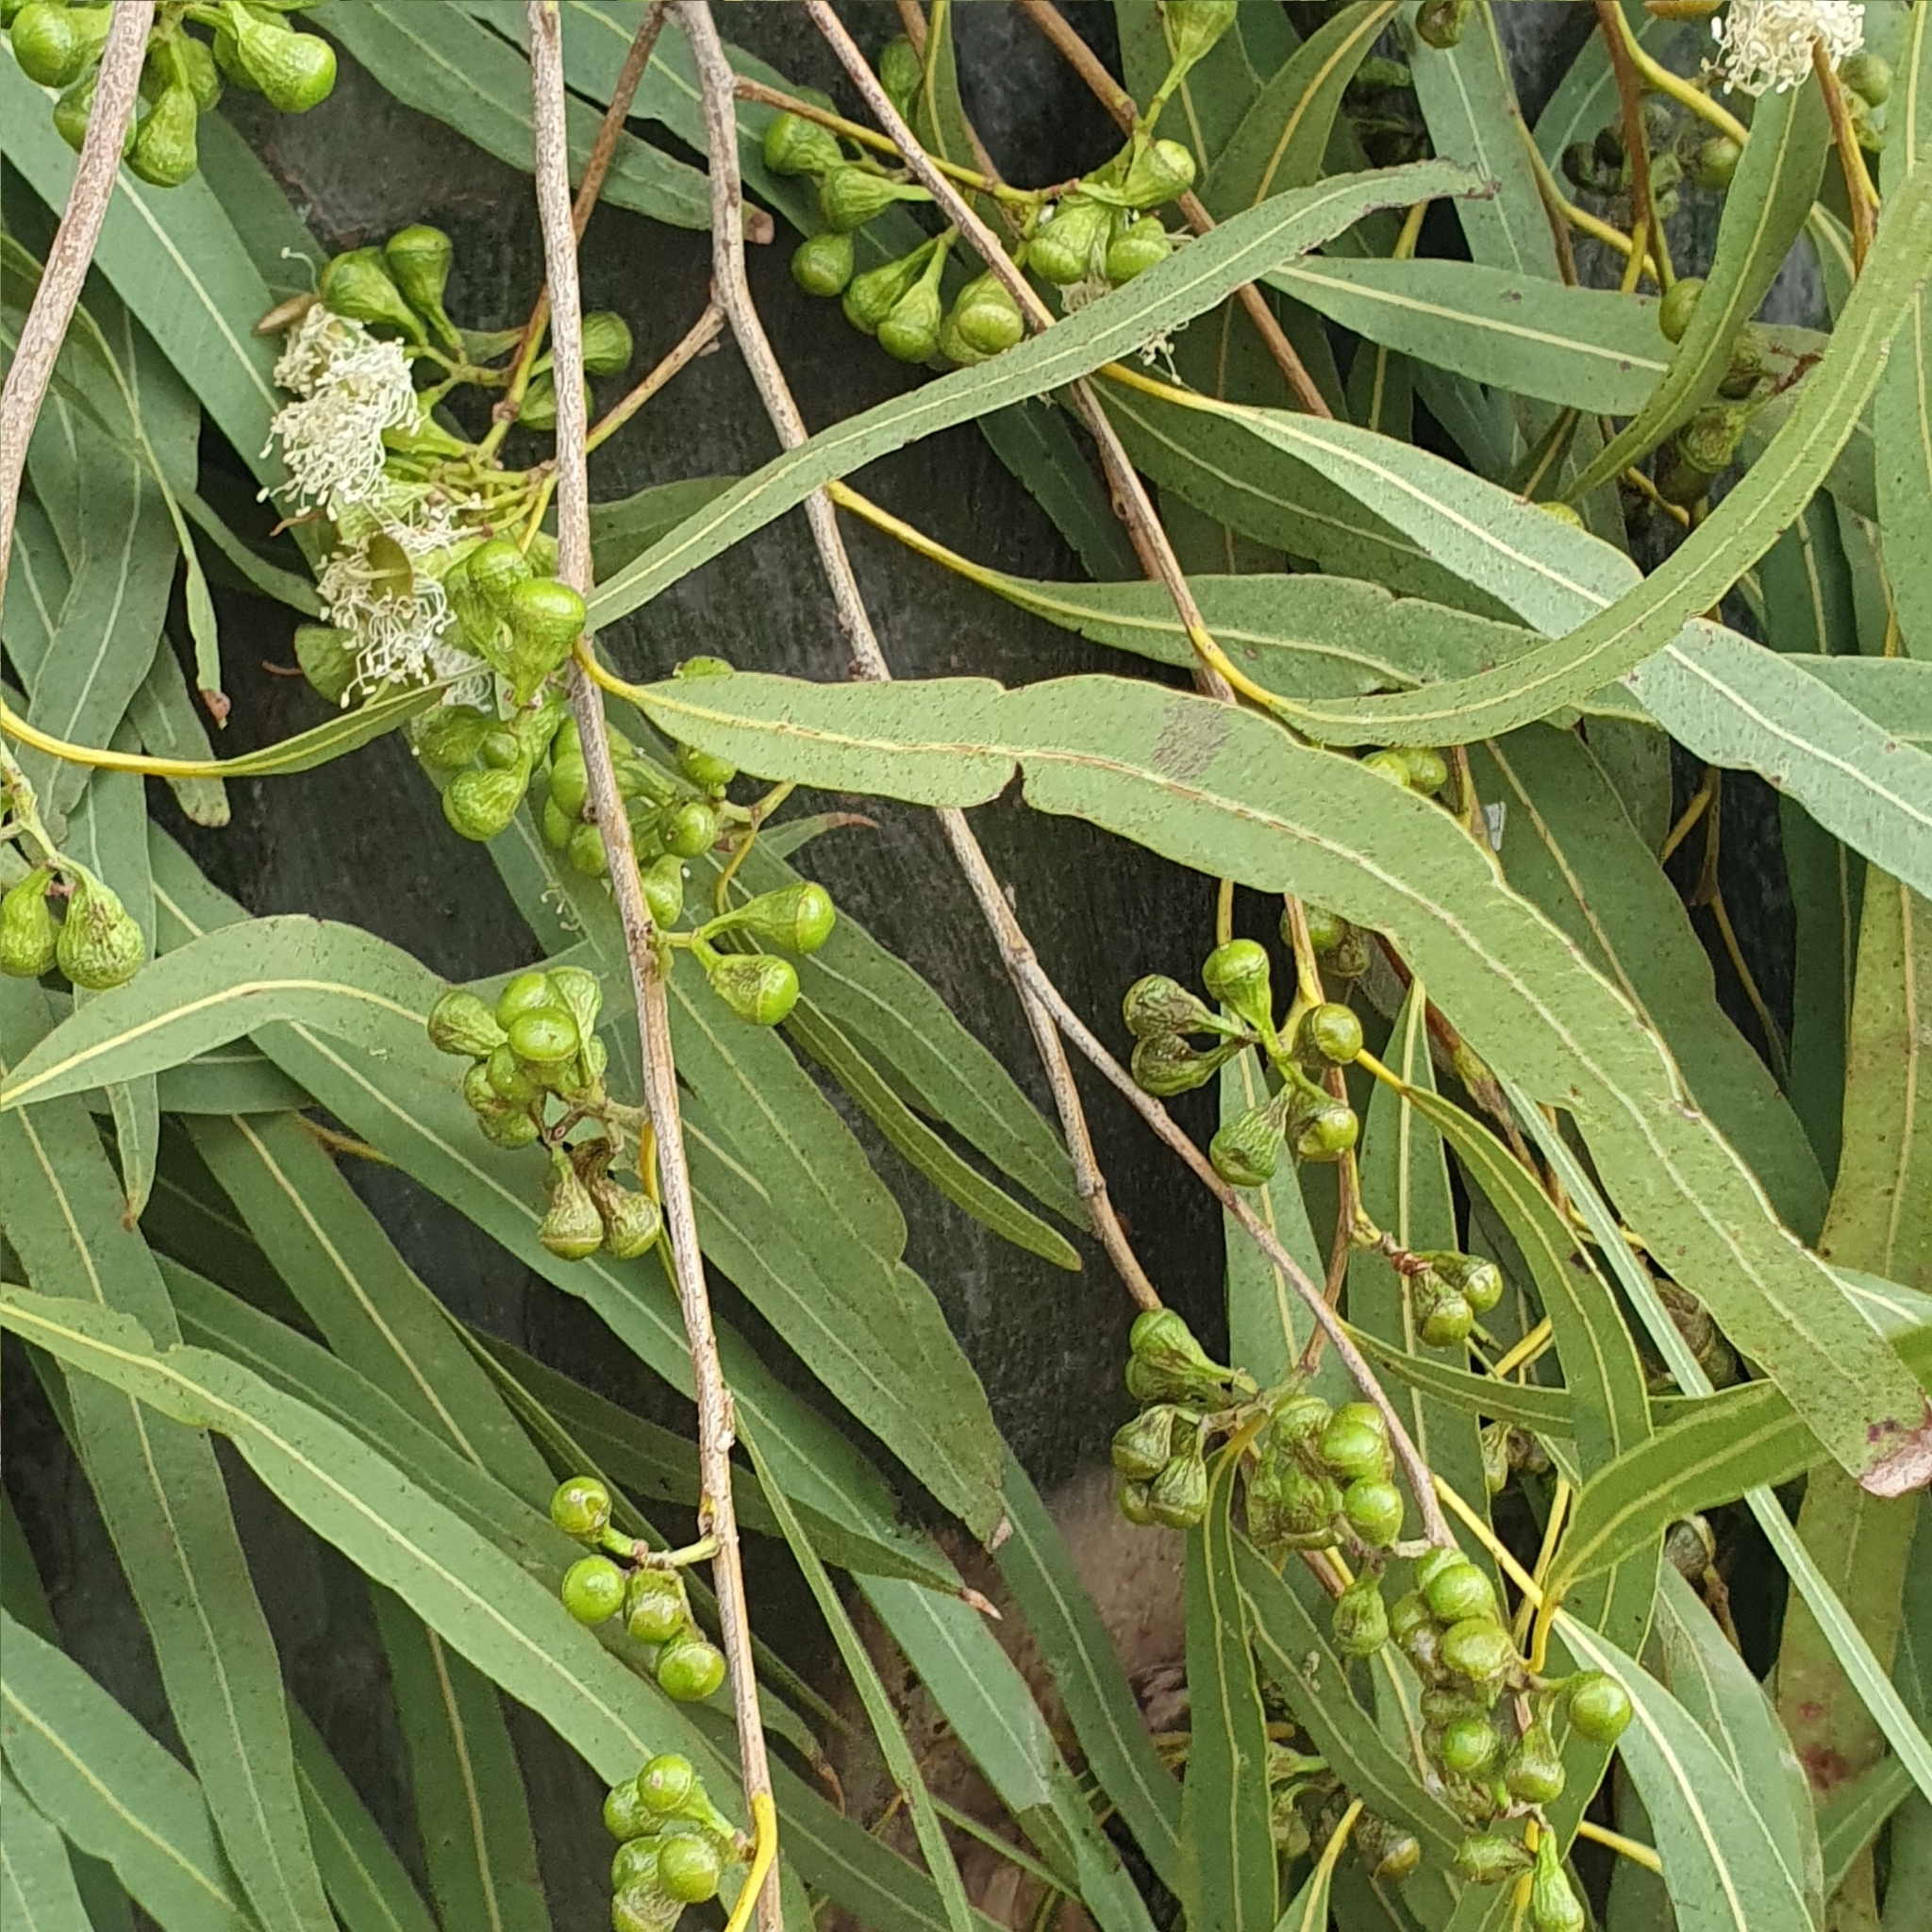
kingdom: Plantae
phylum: Tracheophyta
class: Magnoliopsida
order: Myrtales
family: Myrtaceae
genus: Corymbia
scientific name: Corymbia tessellaris
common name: Carbeen
